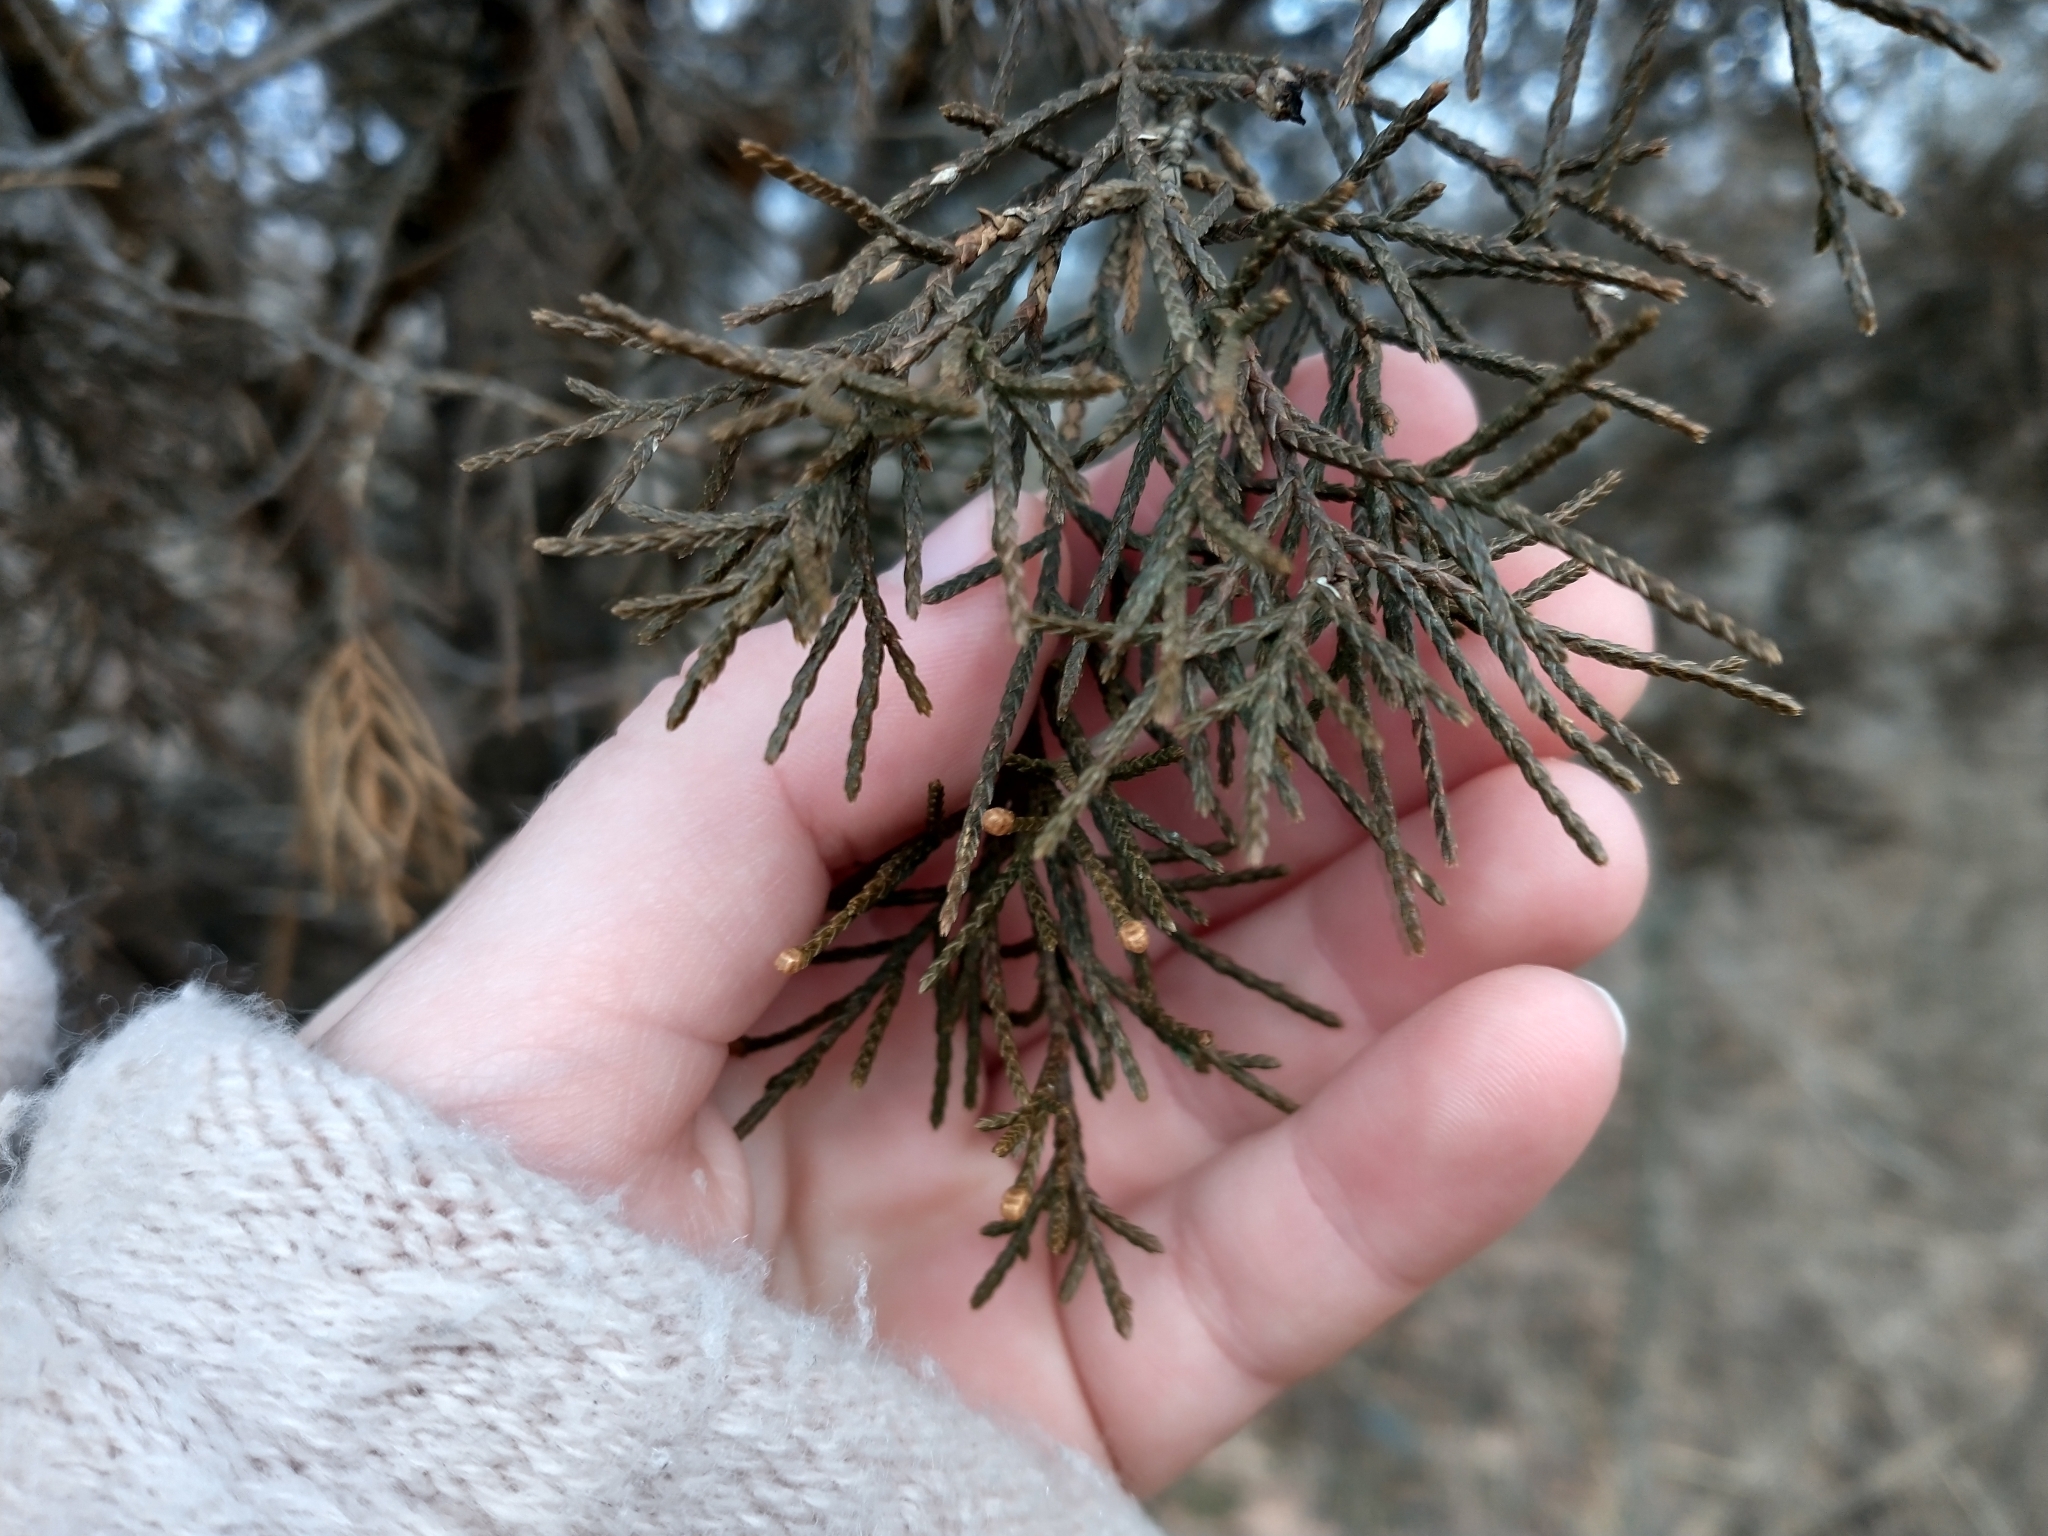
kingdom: Plantae
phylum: Tracheophyta
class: Pinopsida
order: Pinales
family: Cupressaceae
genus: Juniperus
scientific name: Juniperus virginiana
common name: Red juniper
